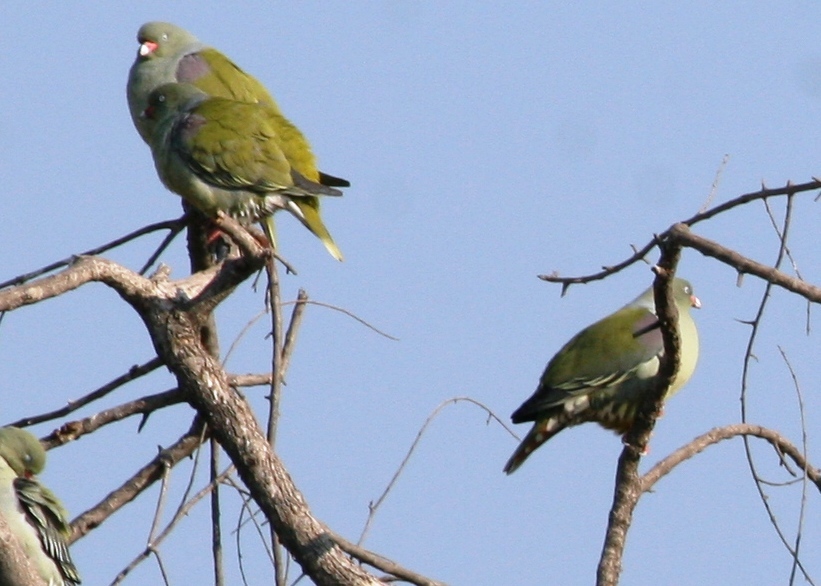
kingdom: Animalia
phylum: Chordata
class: Aves
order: Columbiformes
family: Columbidae
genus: Treron
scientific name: Treron calvus
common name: African green pigeon
